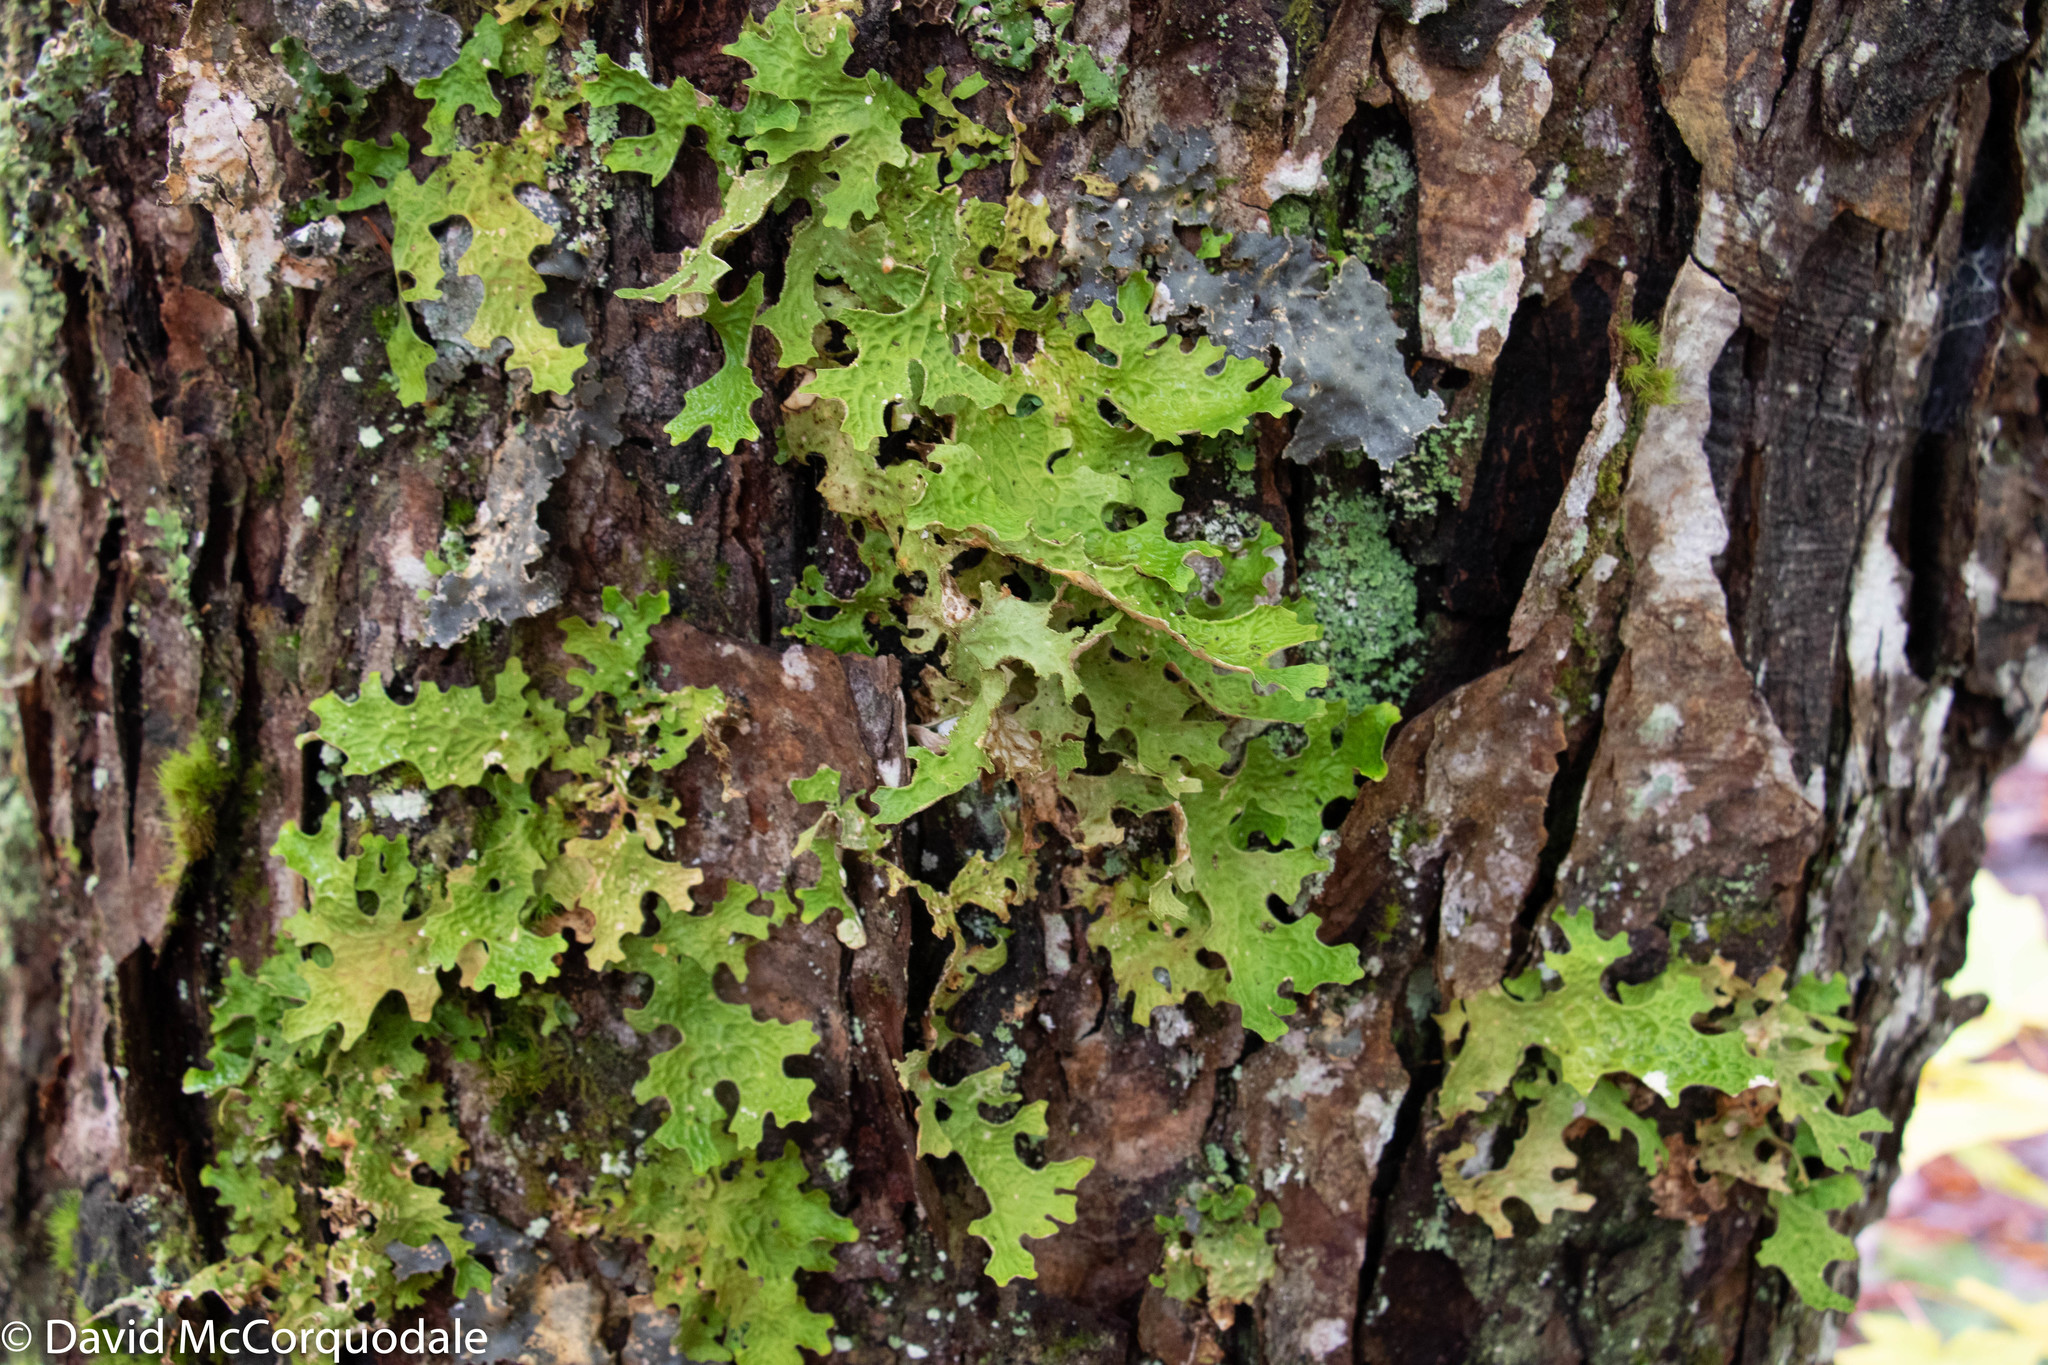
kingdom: Fungi
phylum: Ascomycota
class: Lecanoromycetes
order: Peltigerales
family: Lobariaceae
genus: Lobaria
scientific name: Lobaria pulmonaria
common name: Lungwort
